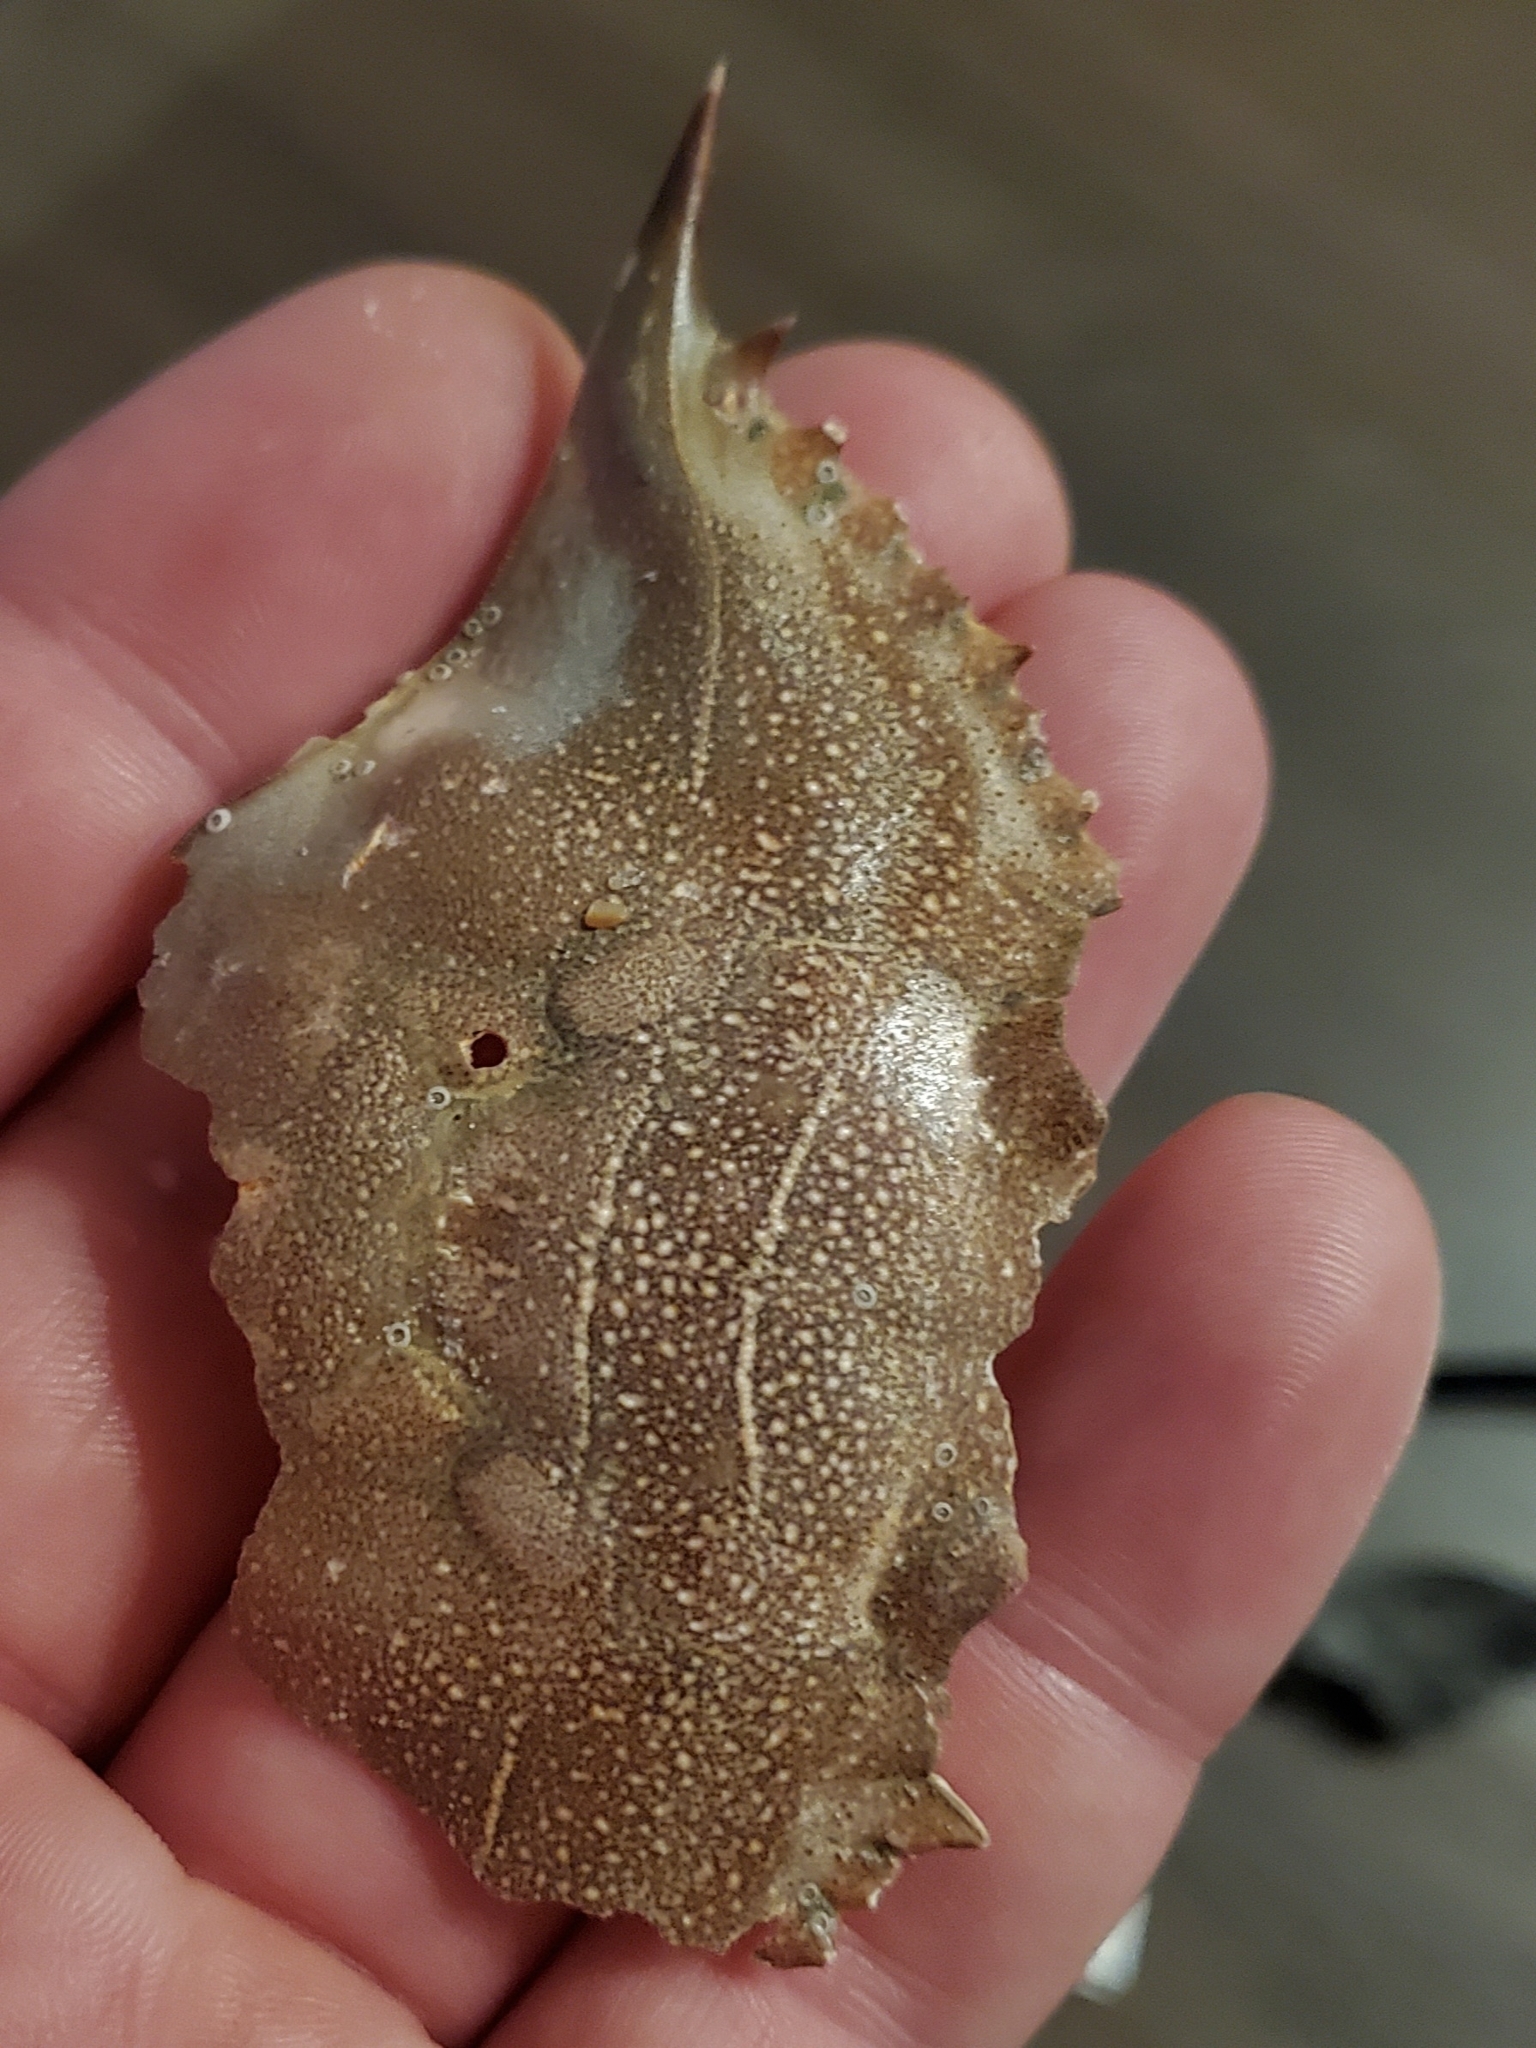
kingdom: Animalia
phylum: Arthropoda
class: Malacostraca
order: Decapoda
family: Portunidae
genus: Callinectes
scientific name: Callinectes sapidus
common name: Blue crab
